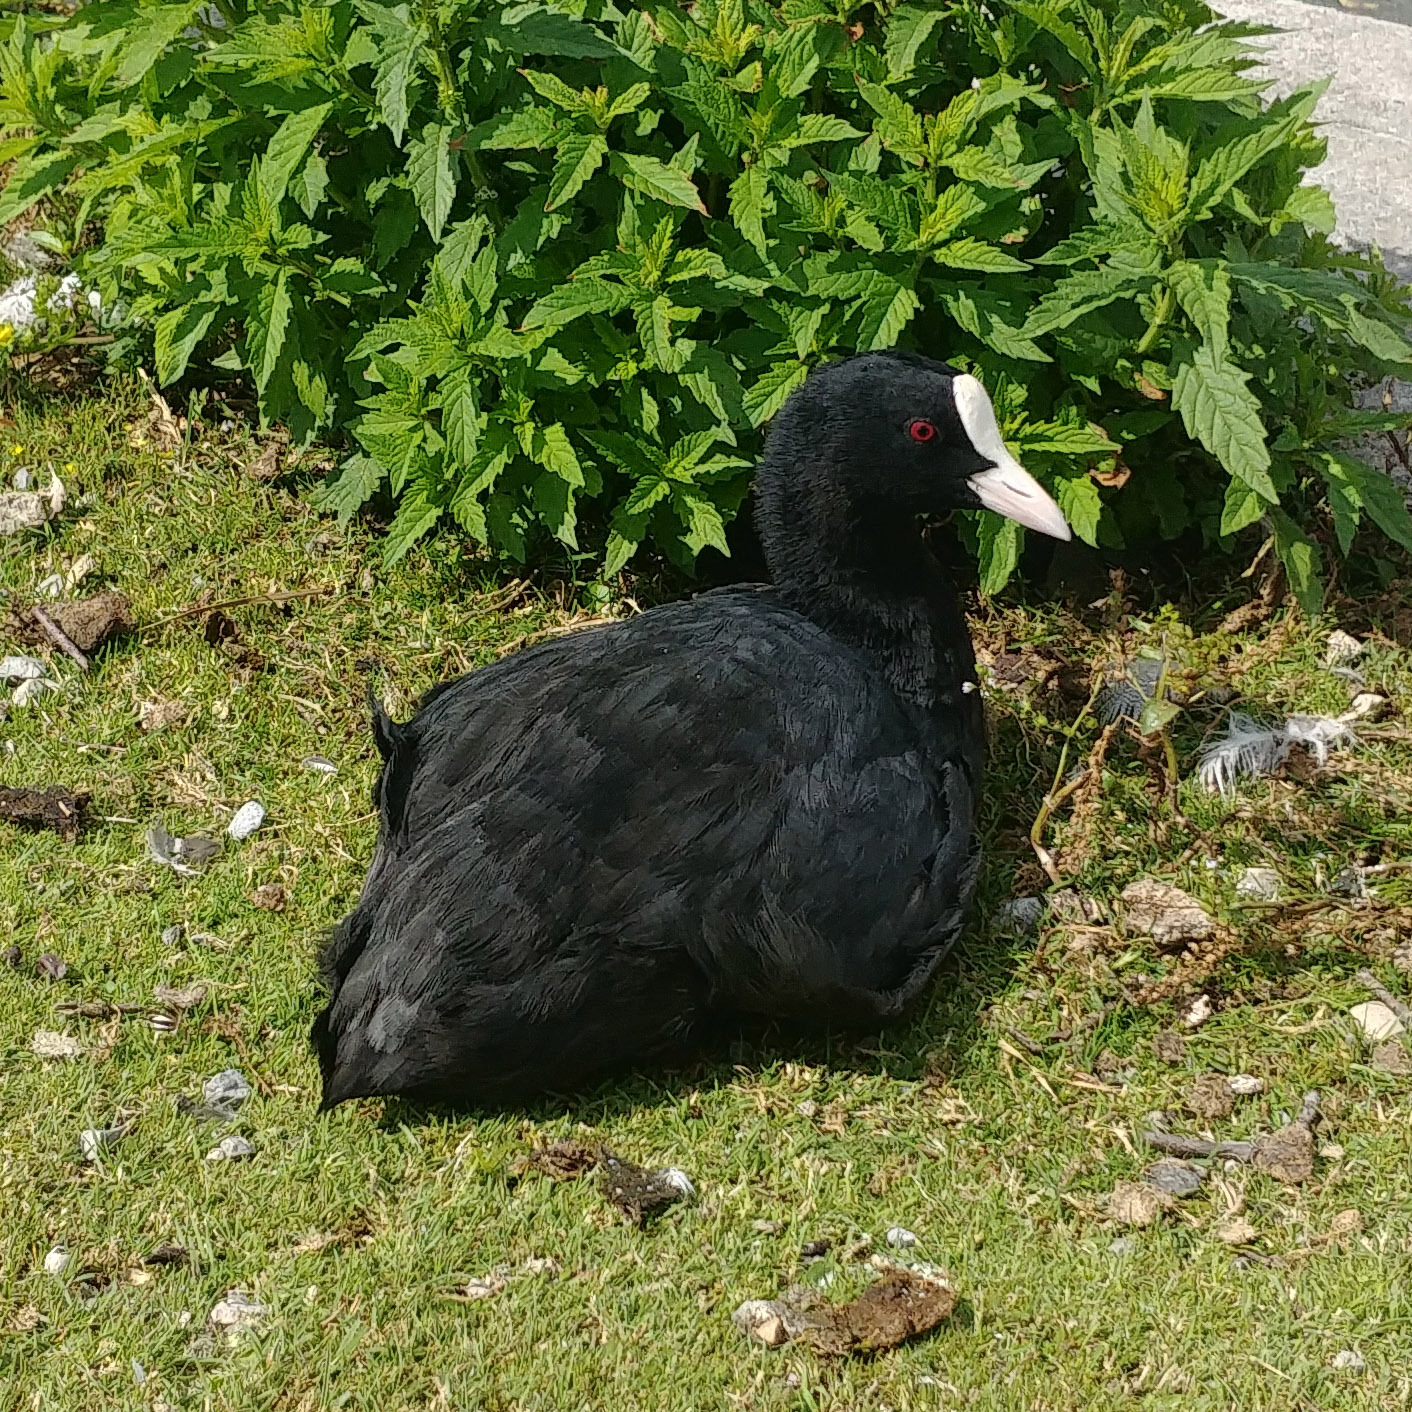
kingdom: Animalia
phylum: Chordata
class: Aves
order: Gruiformes
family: Rallidae
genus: Fulica
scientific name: Fulica atra
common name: Eurasian coot
